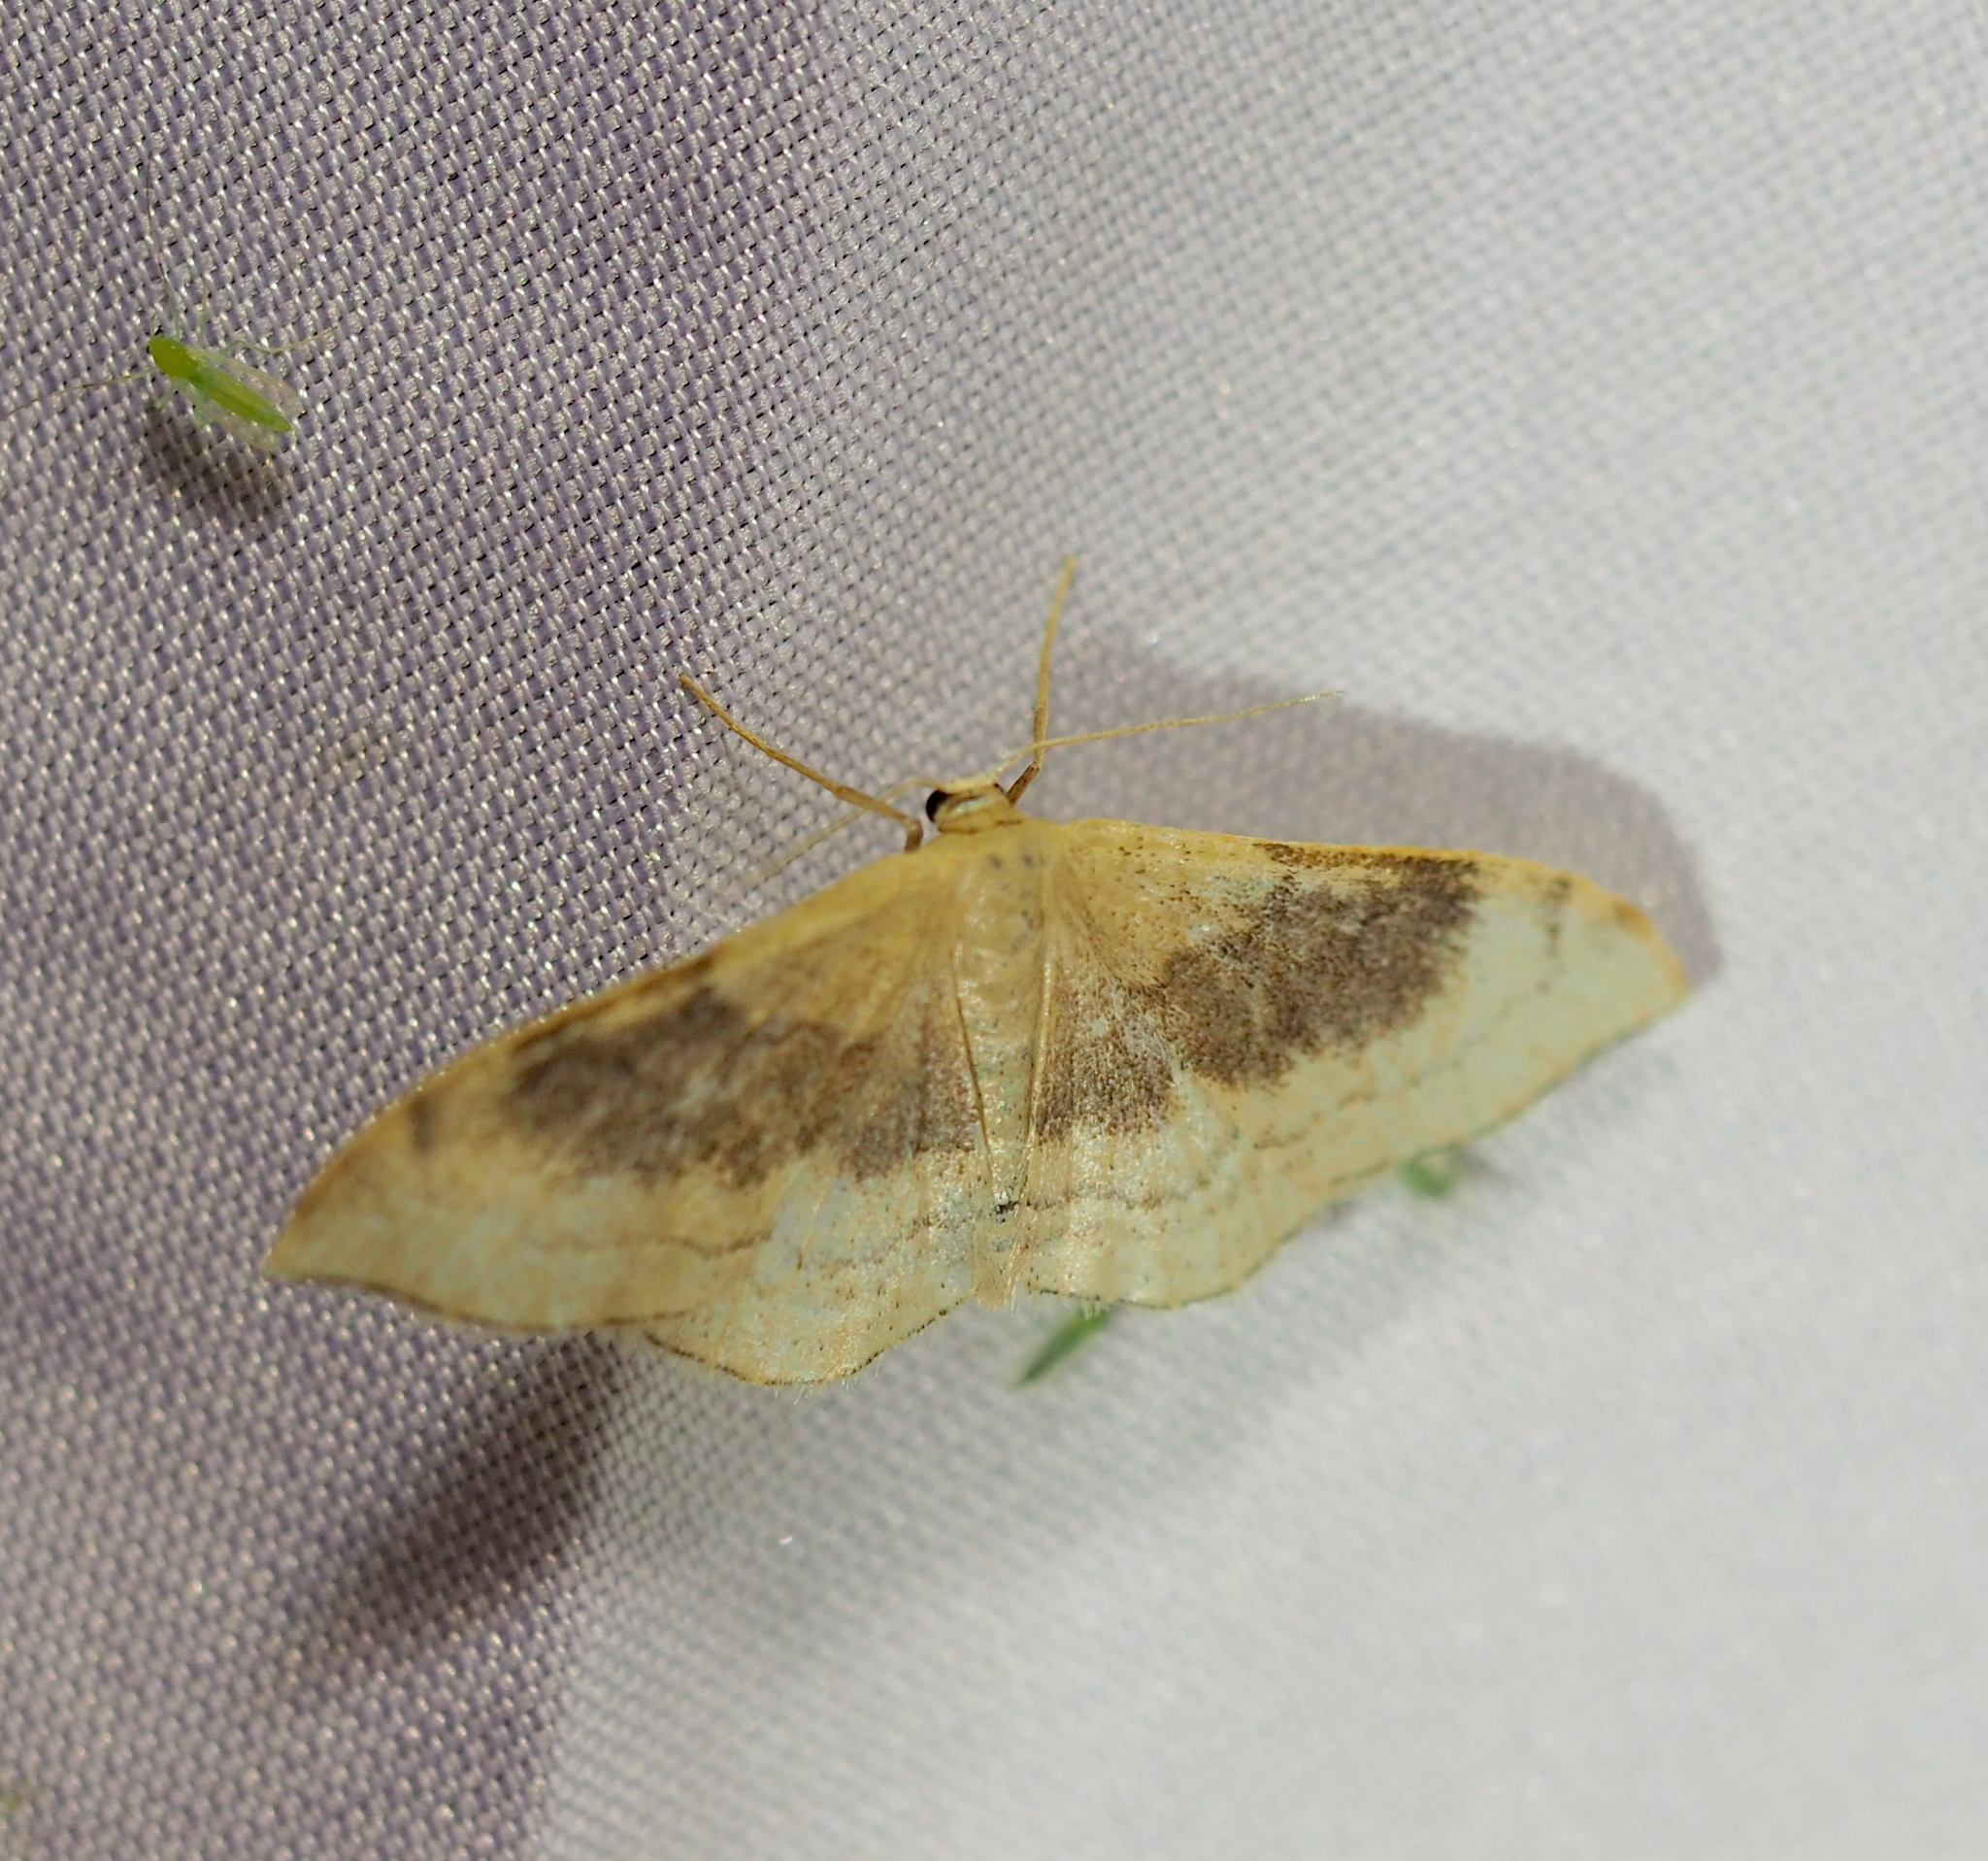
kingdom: Animalia
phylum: Arthropoda
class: Insecta
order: Lepidoptera
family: Geometridae
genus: Idaea
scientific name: Idaea degeneraria
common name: Portland ribbon wave
